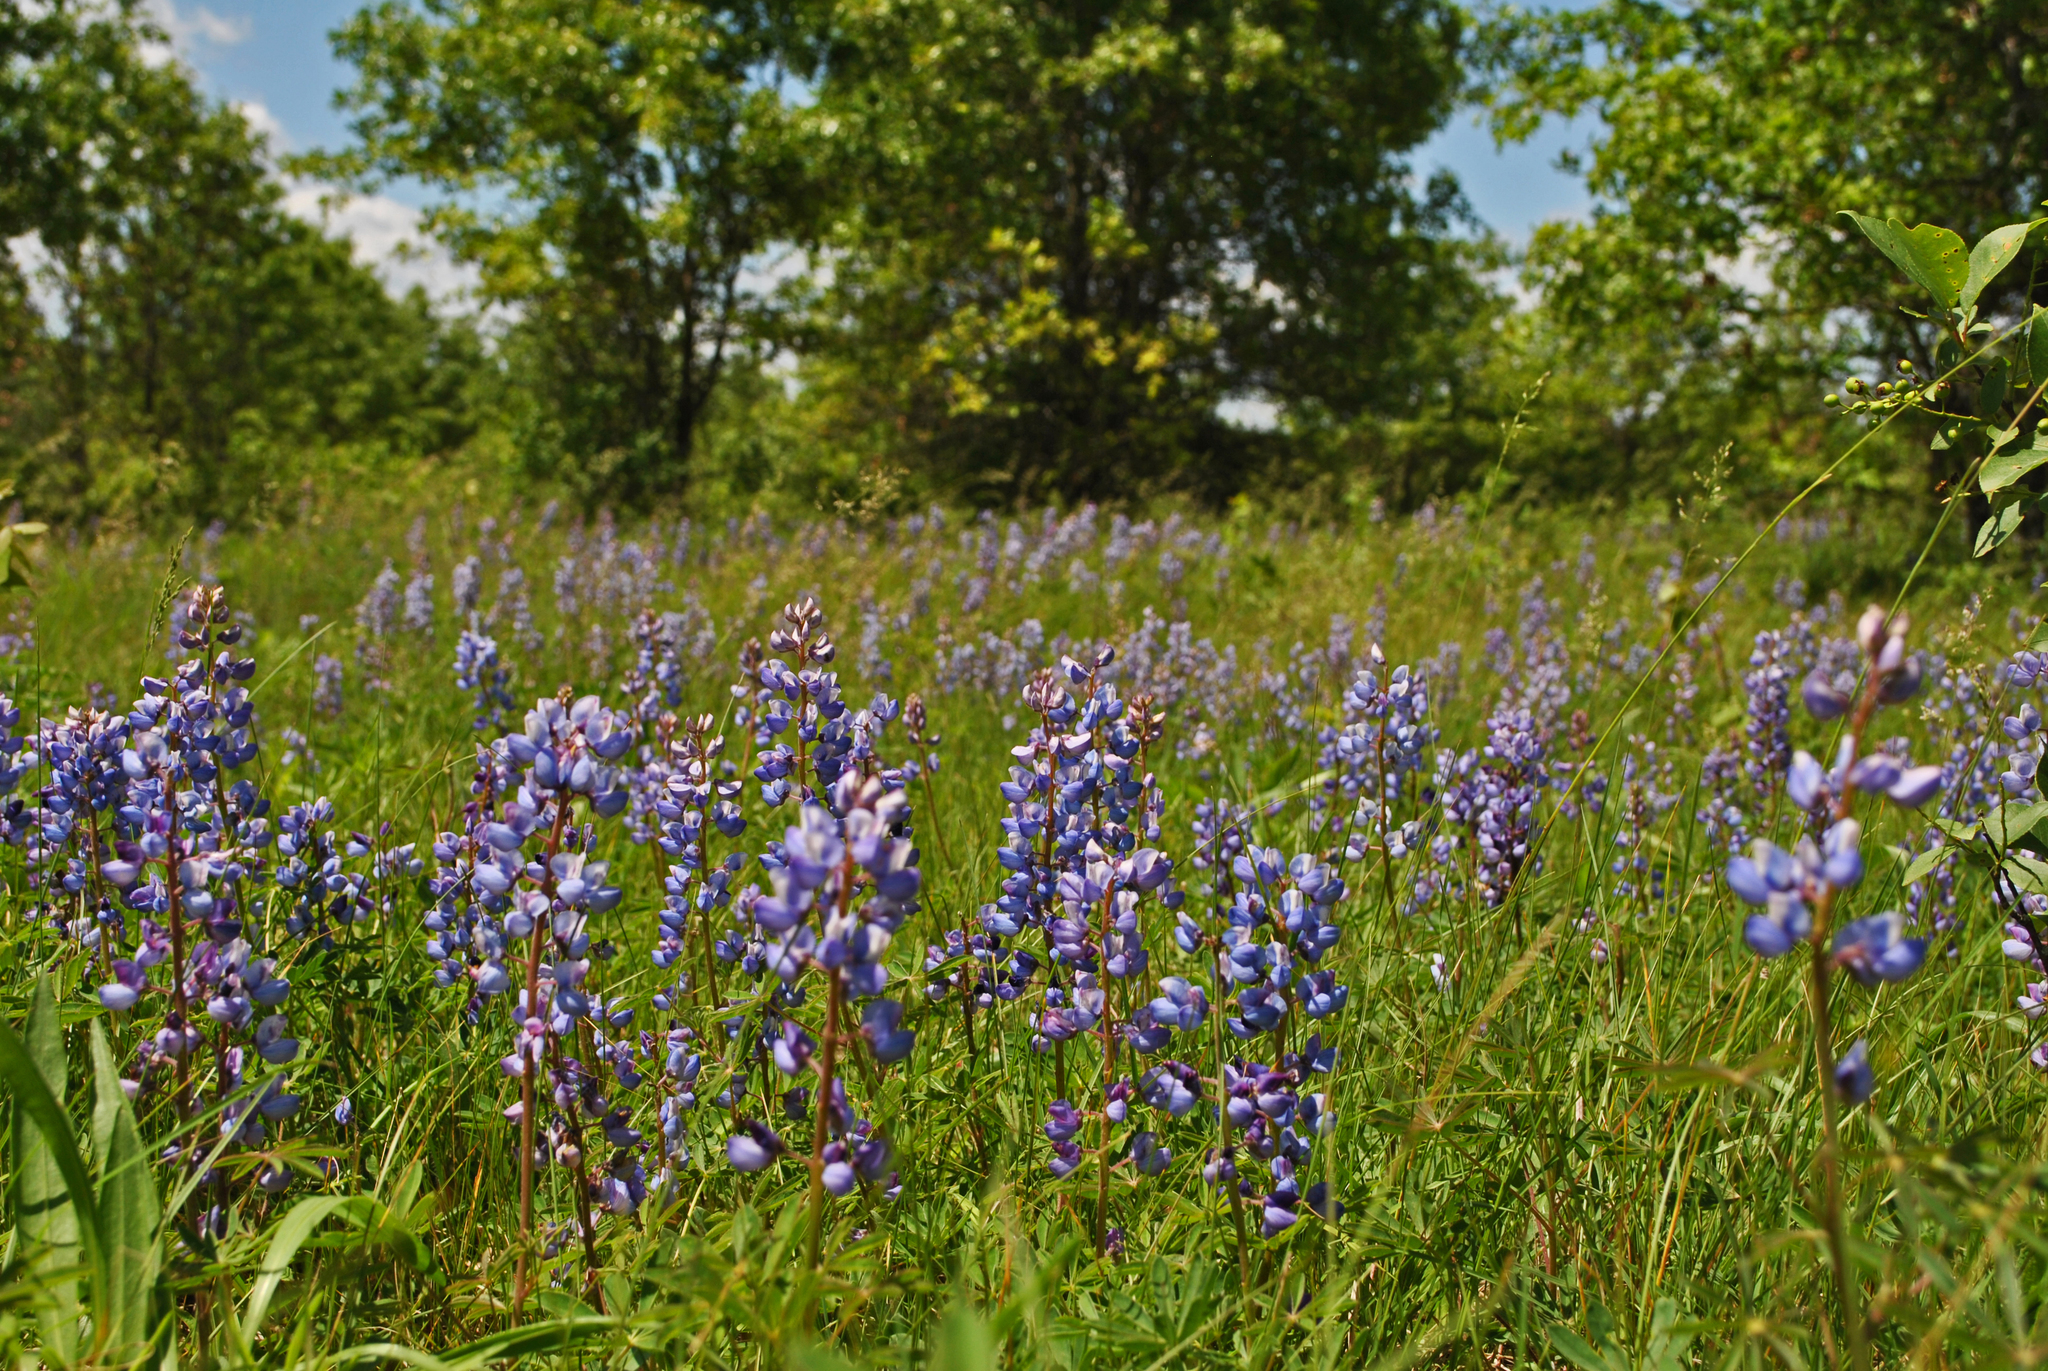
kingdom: Plantae
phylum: Tracheophyta
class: Magnoliopsida
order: Fabales
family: Fabaceae
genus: Lupinus
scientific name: Lupinus perennis
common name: Sundial lupine
